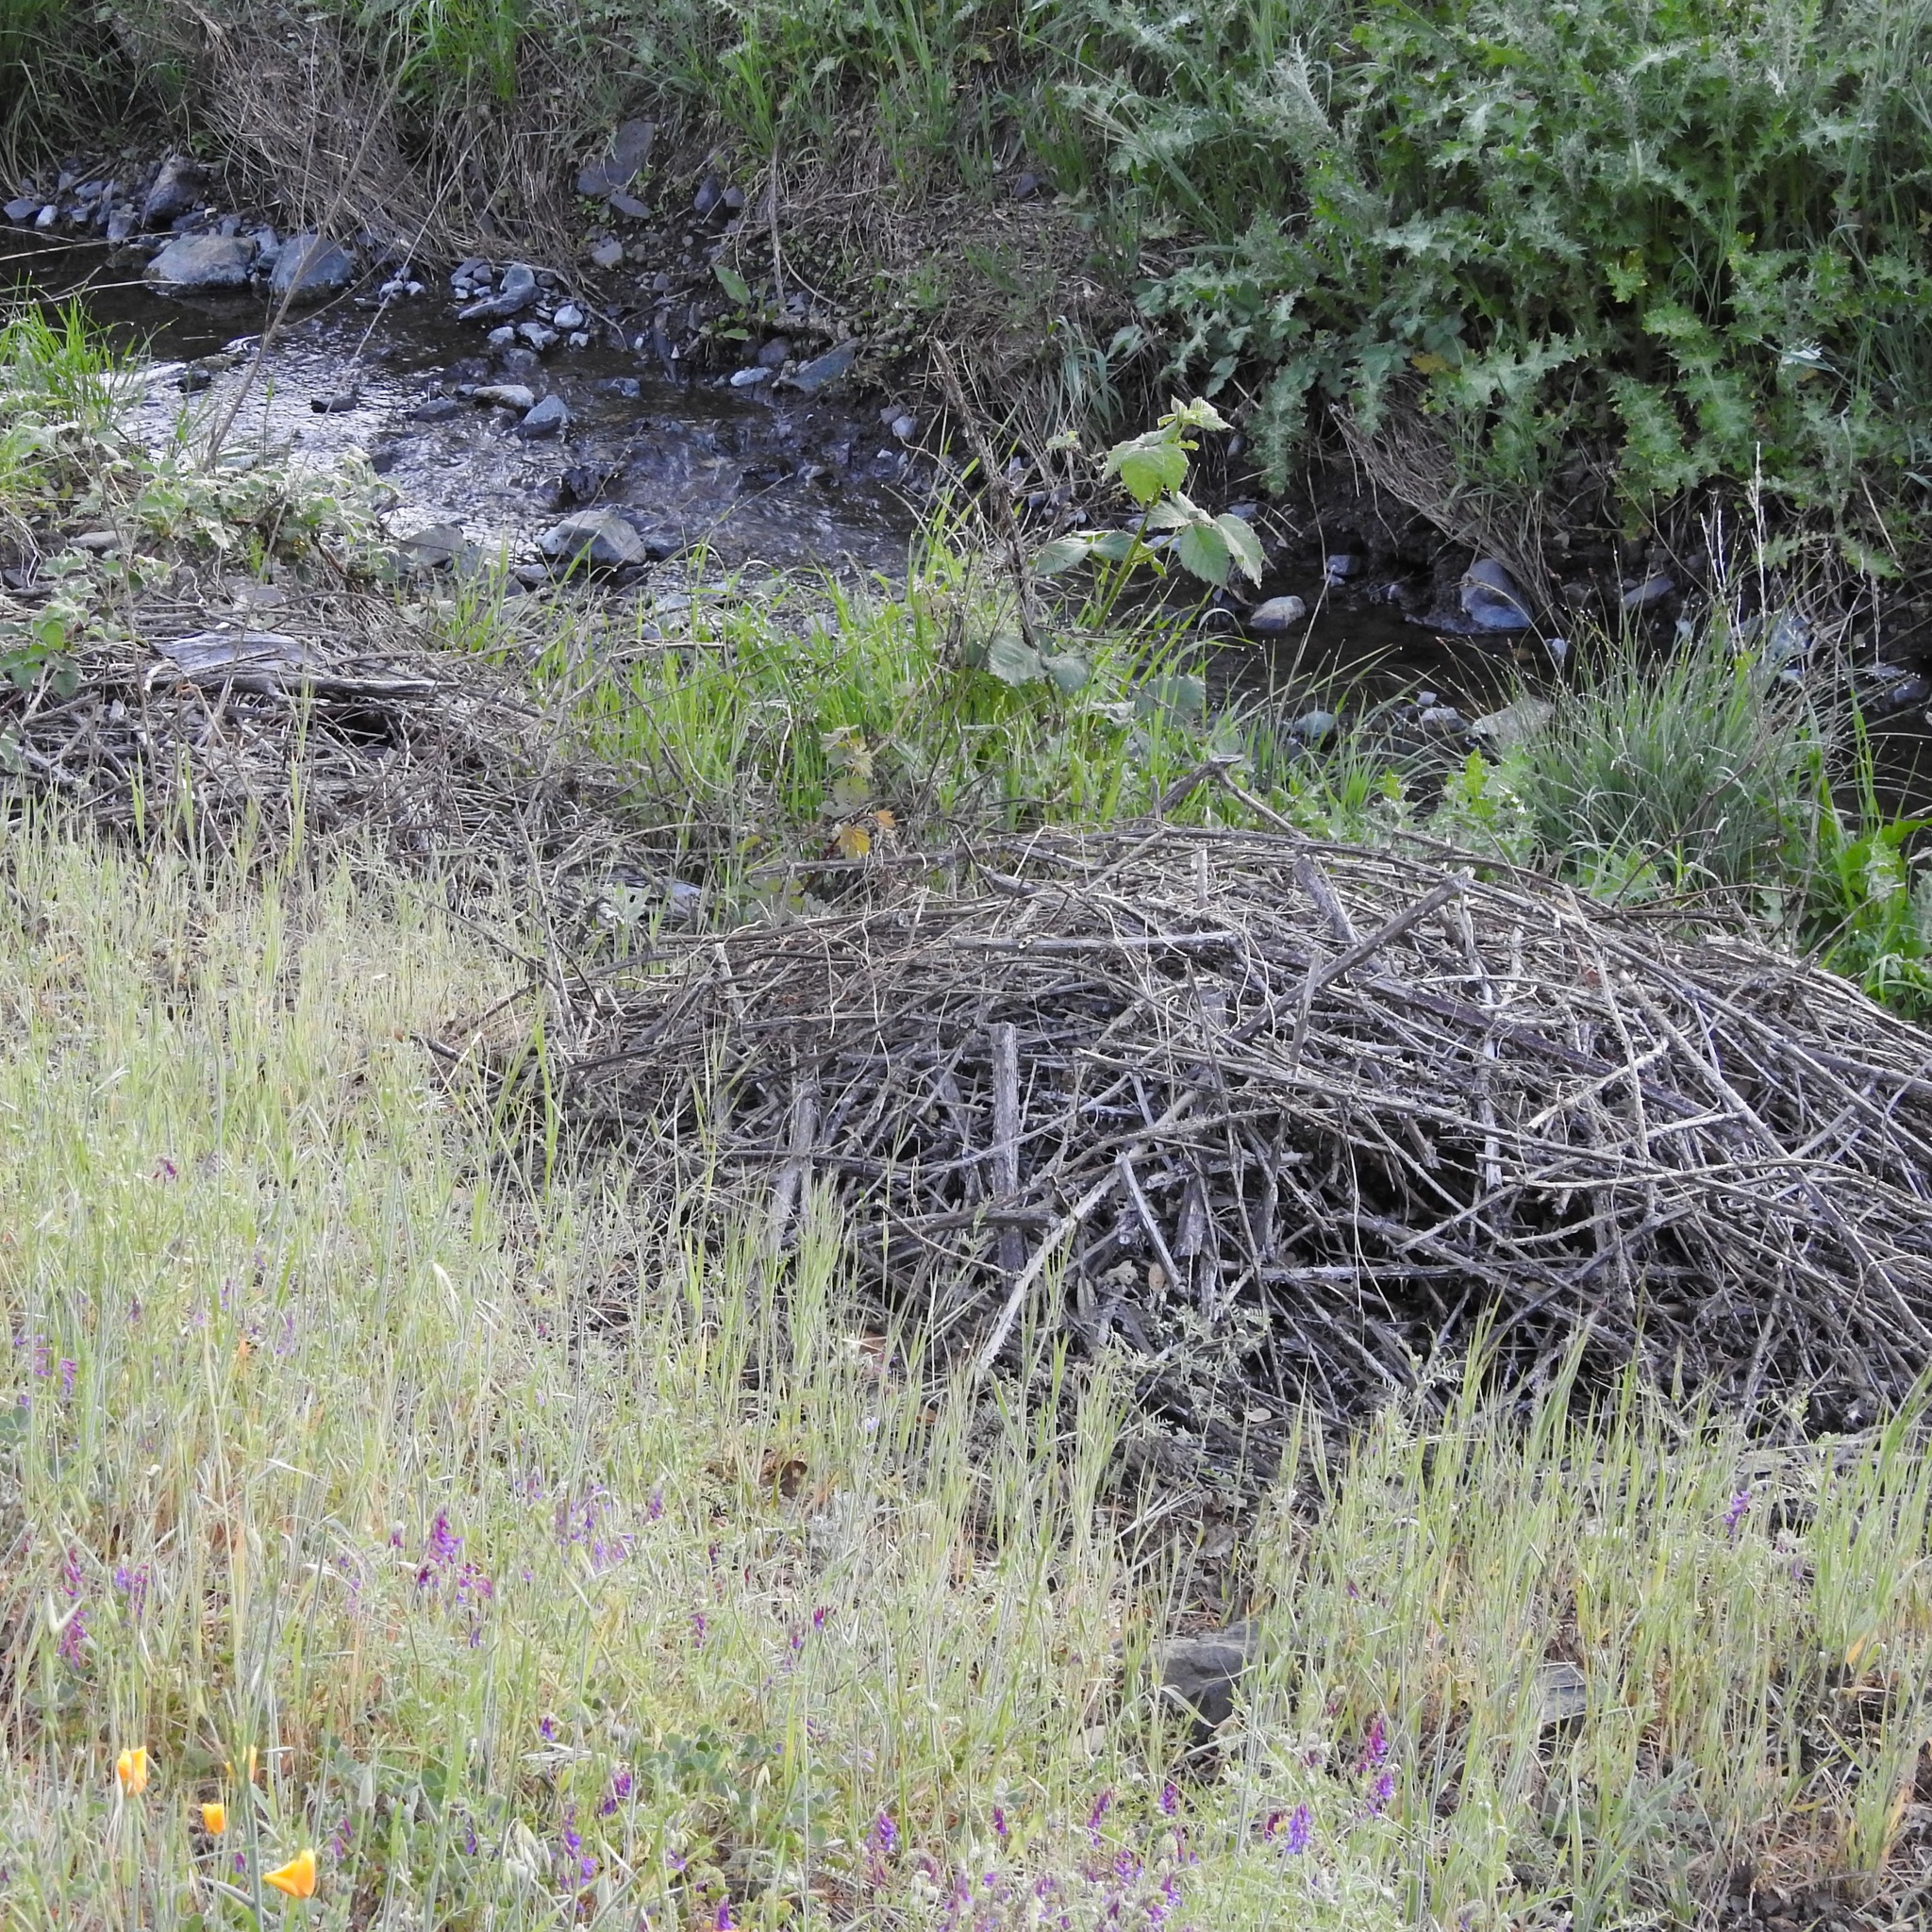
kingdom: Animalia
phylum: Chordata
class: Mammalia
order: Rodentia
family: Cricetidae
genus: Neotoma
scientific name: Neotoma fuscipes
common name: Dusky-footed woodrat
